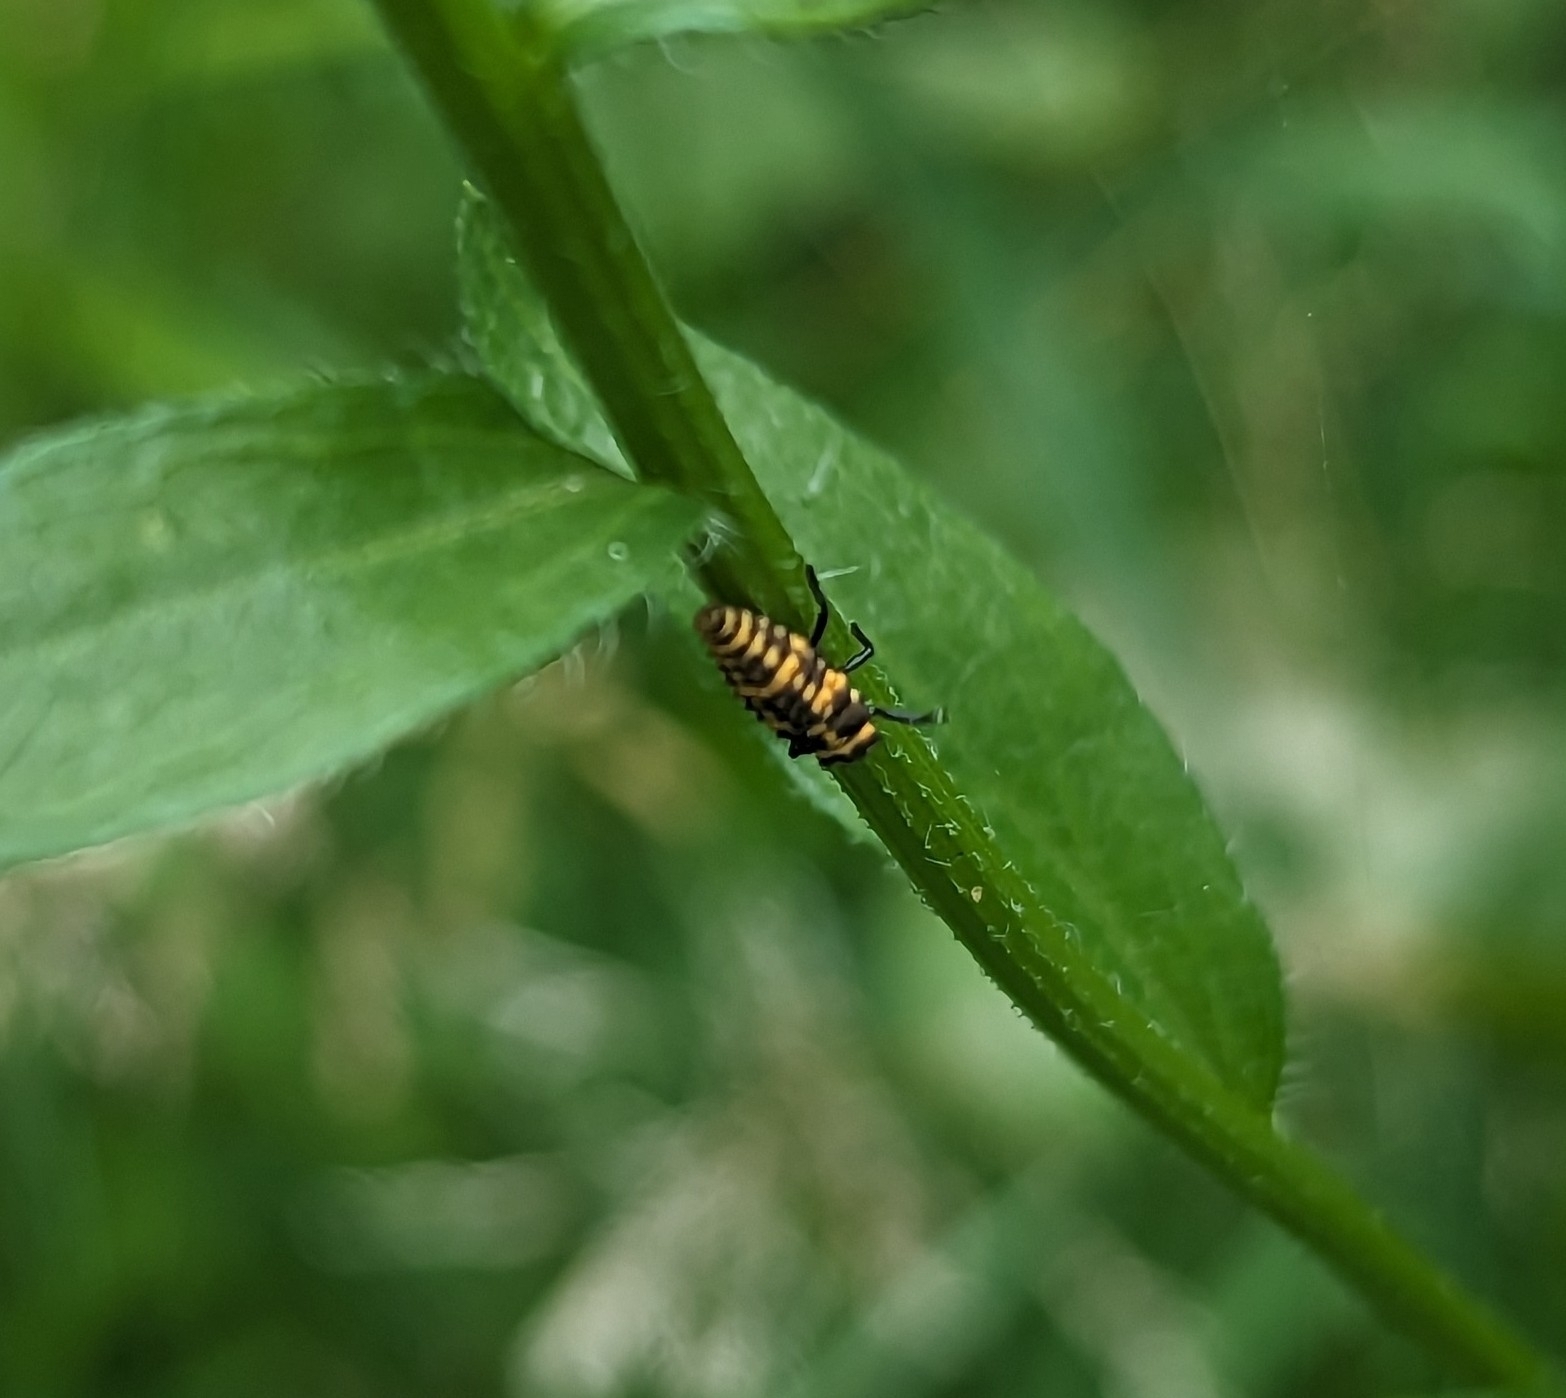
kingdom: Animalia
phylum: Arthropoda
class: Insecta
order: Coleoptera
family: Coccinellidae
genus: Coleomegilla
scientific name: Coleomegilla maculata
